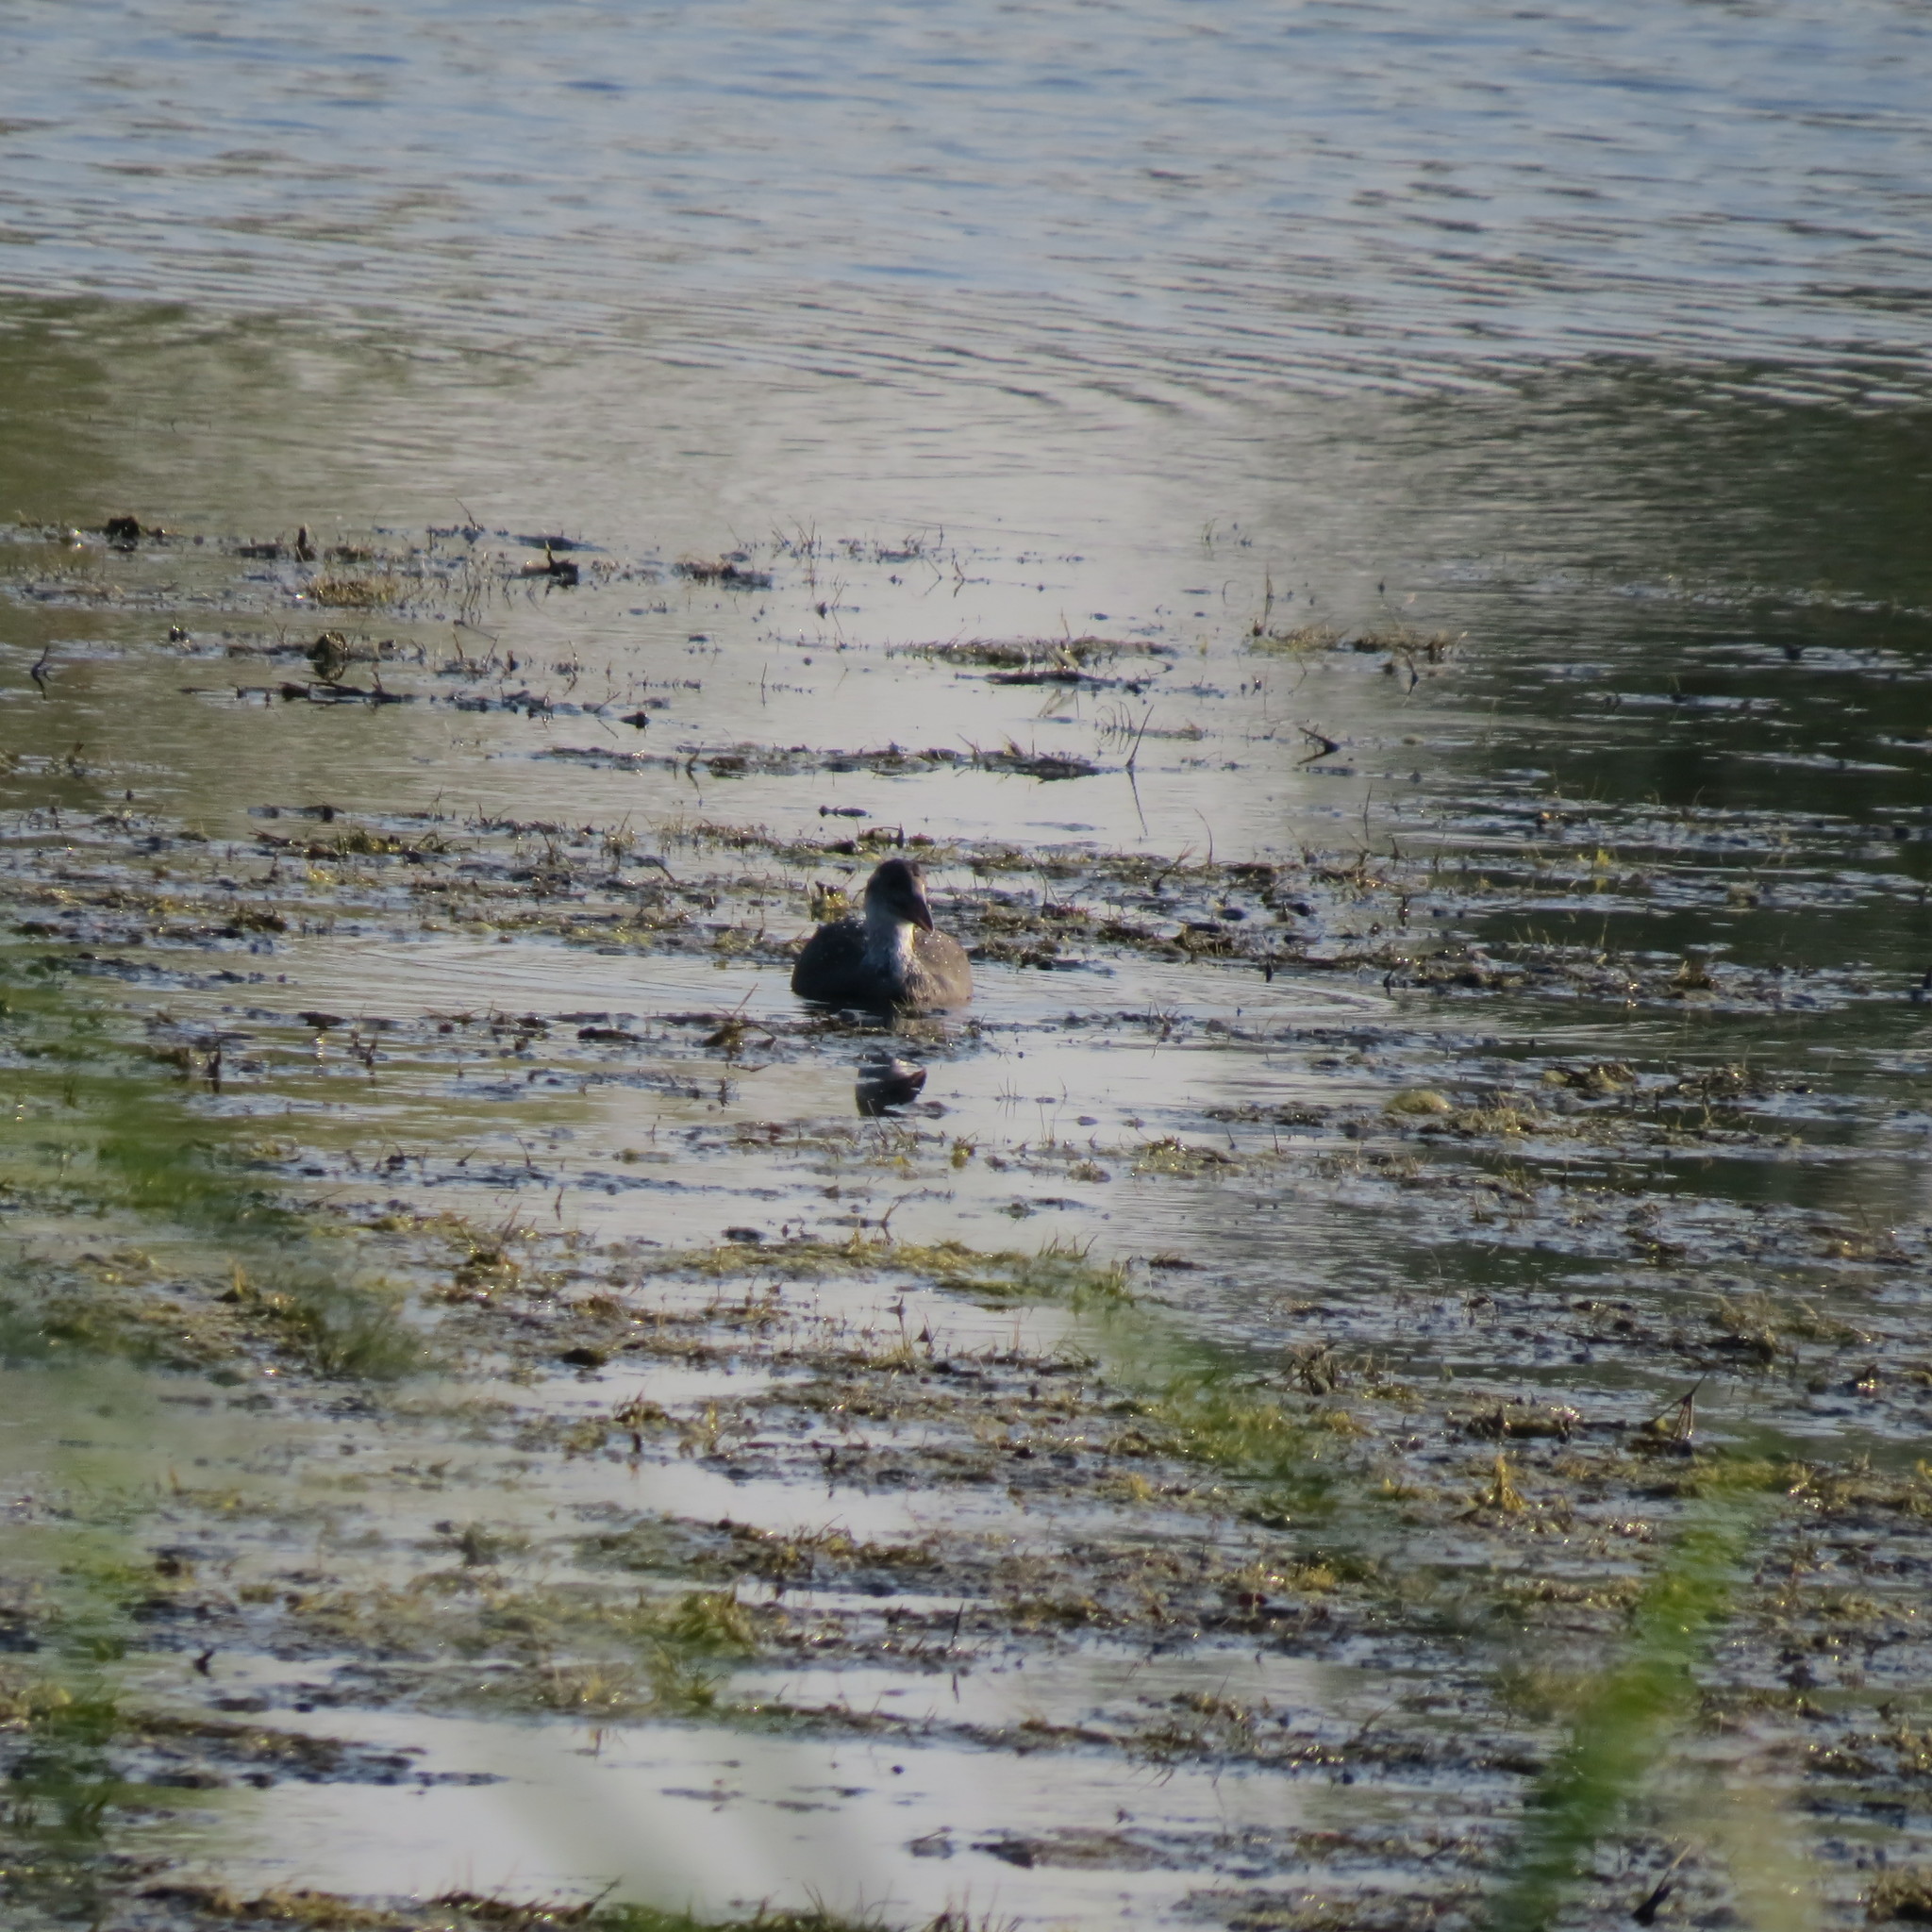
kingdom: Animalia
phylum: Chordata
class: Aves
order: Gruiformes
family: Rallidae
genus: Fulica
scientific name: Fulica atra
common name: Eurasian coot
